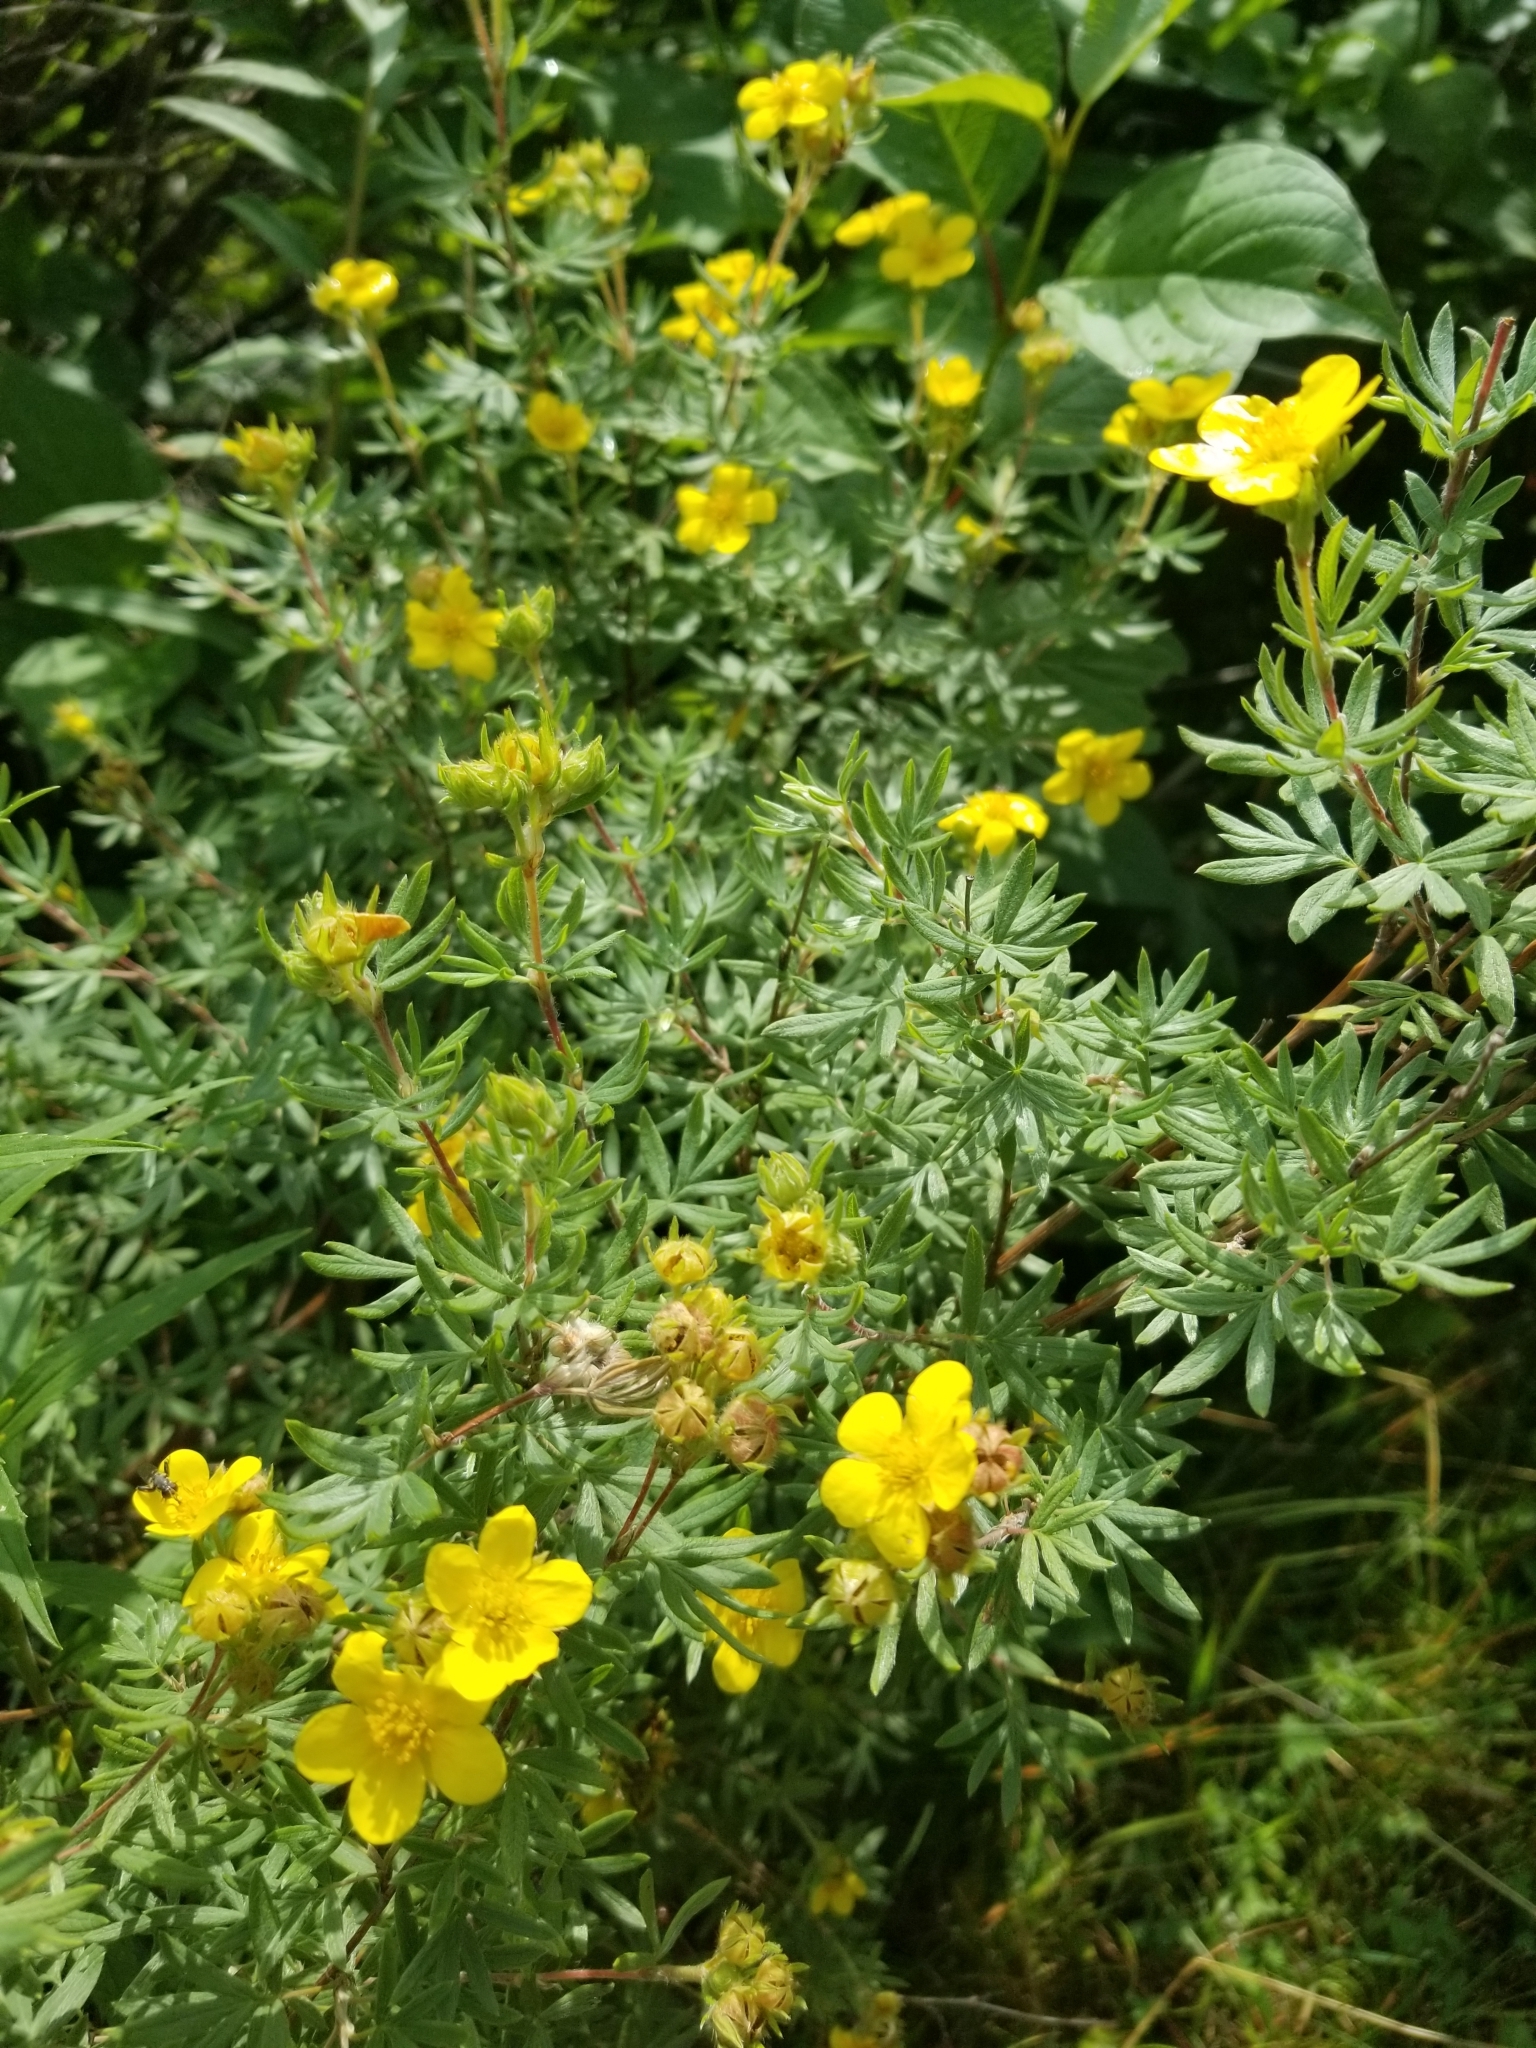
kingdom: Plantae
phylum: Tracheophyta
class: Magnoliopsida
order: Rosales
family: Rosaceae
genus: Dasiphora
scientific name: Dasiphora fruticosa
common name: Shrubby cinquefoil
